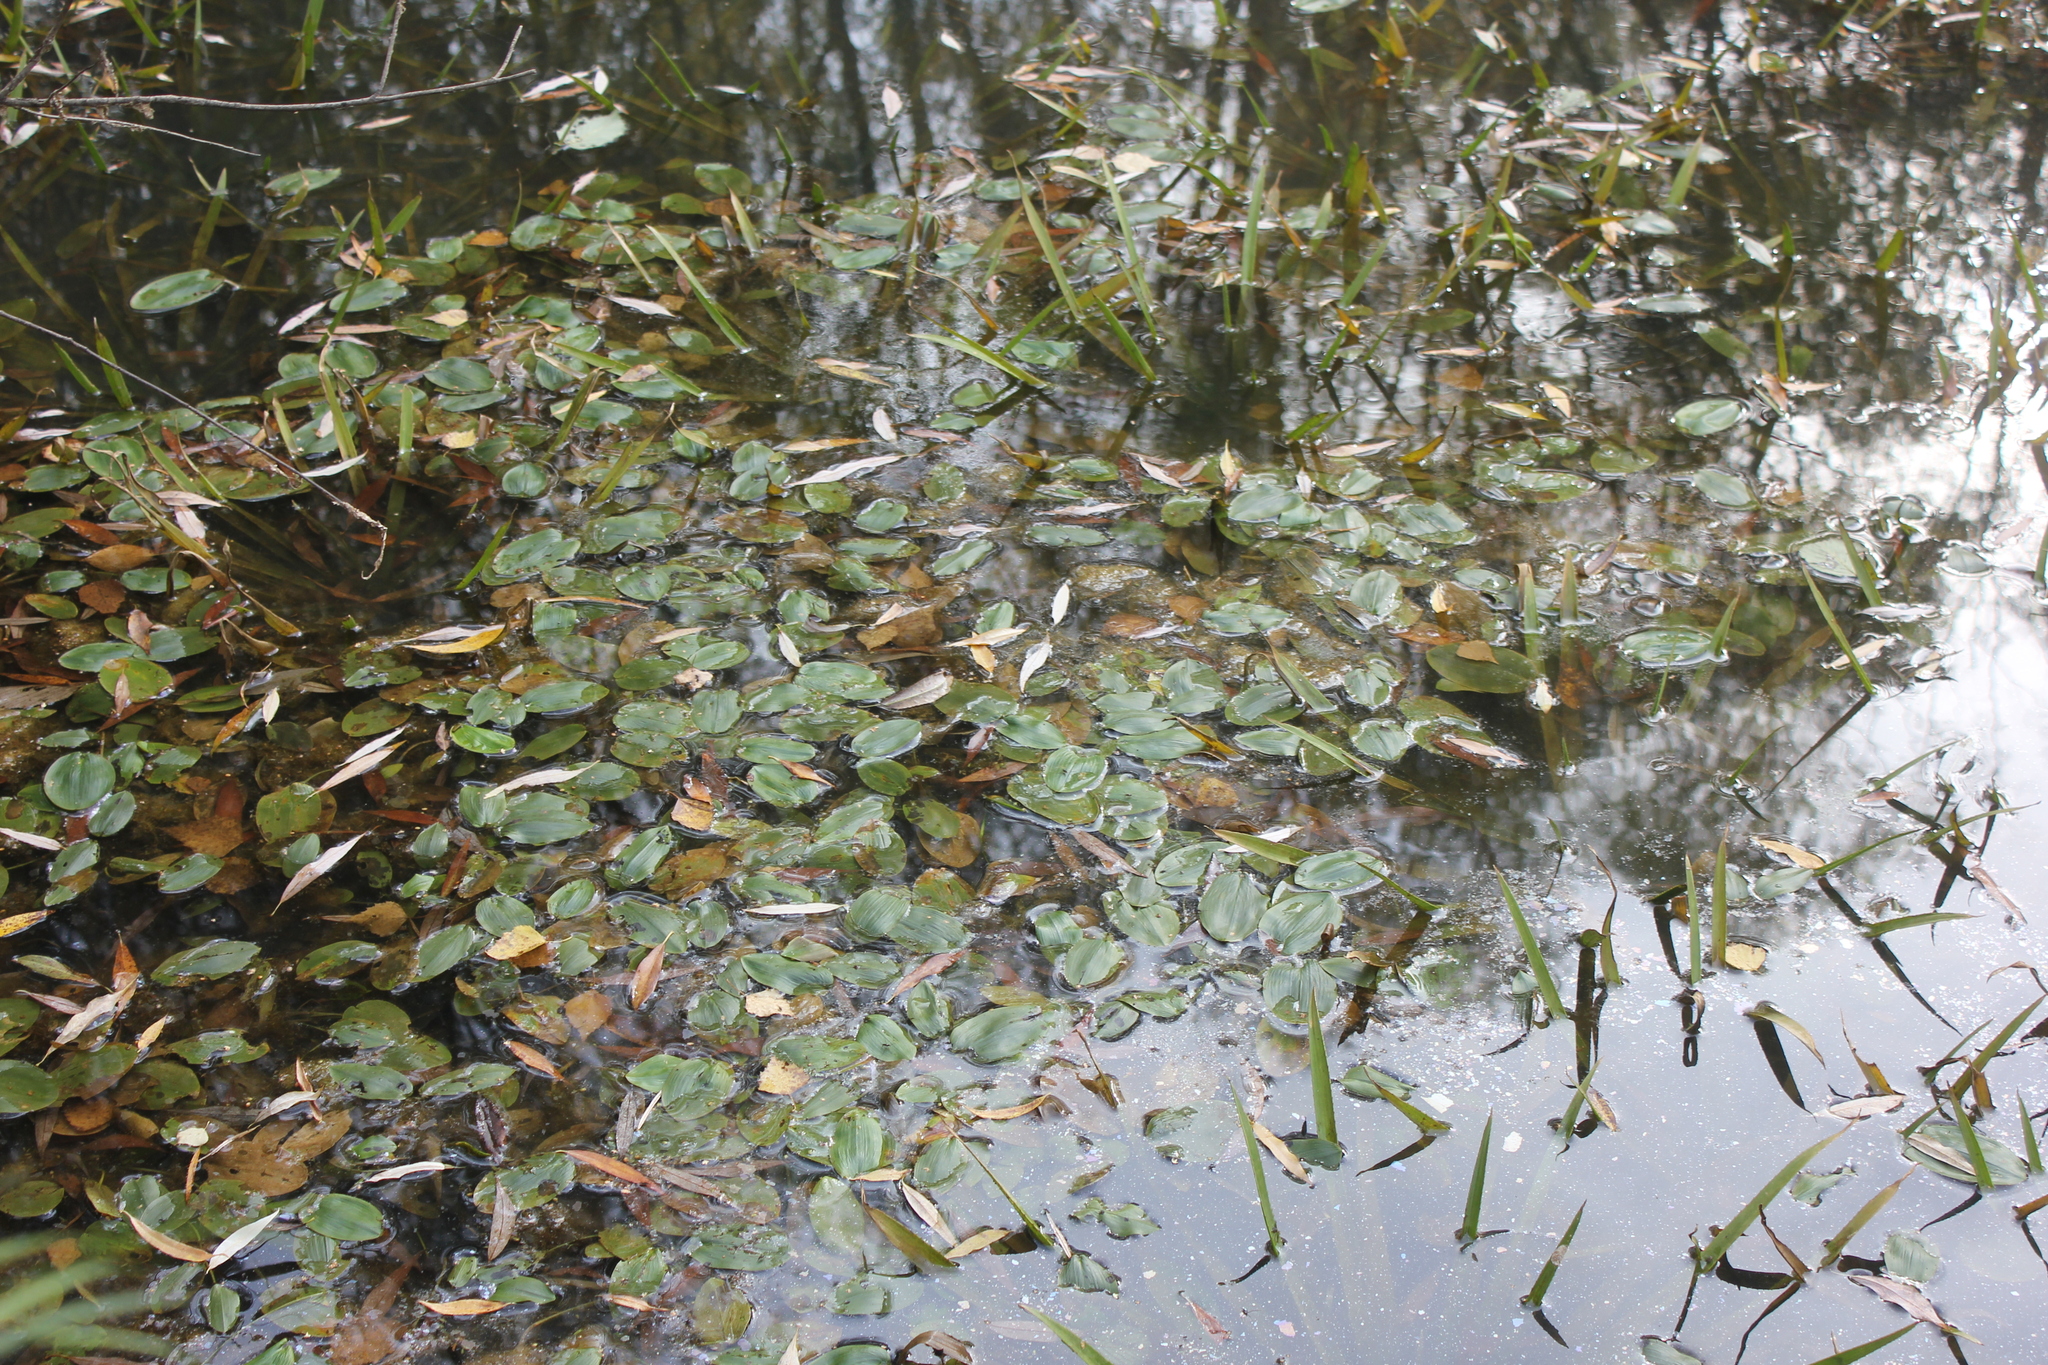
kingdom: Plantae
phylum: Tracheophyta
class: Liliopsida
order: Alismatales
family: Potamogetonaceae
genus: Potamogeton
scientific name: Potamogeton natans
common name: Broad-leaved pondweed
